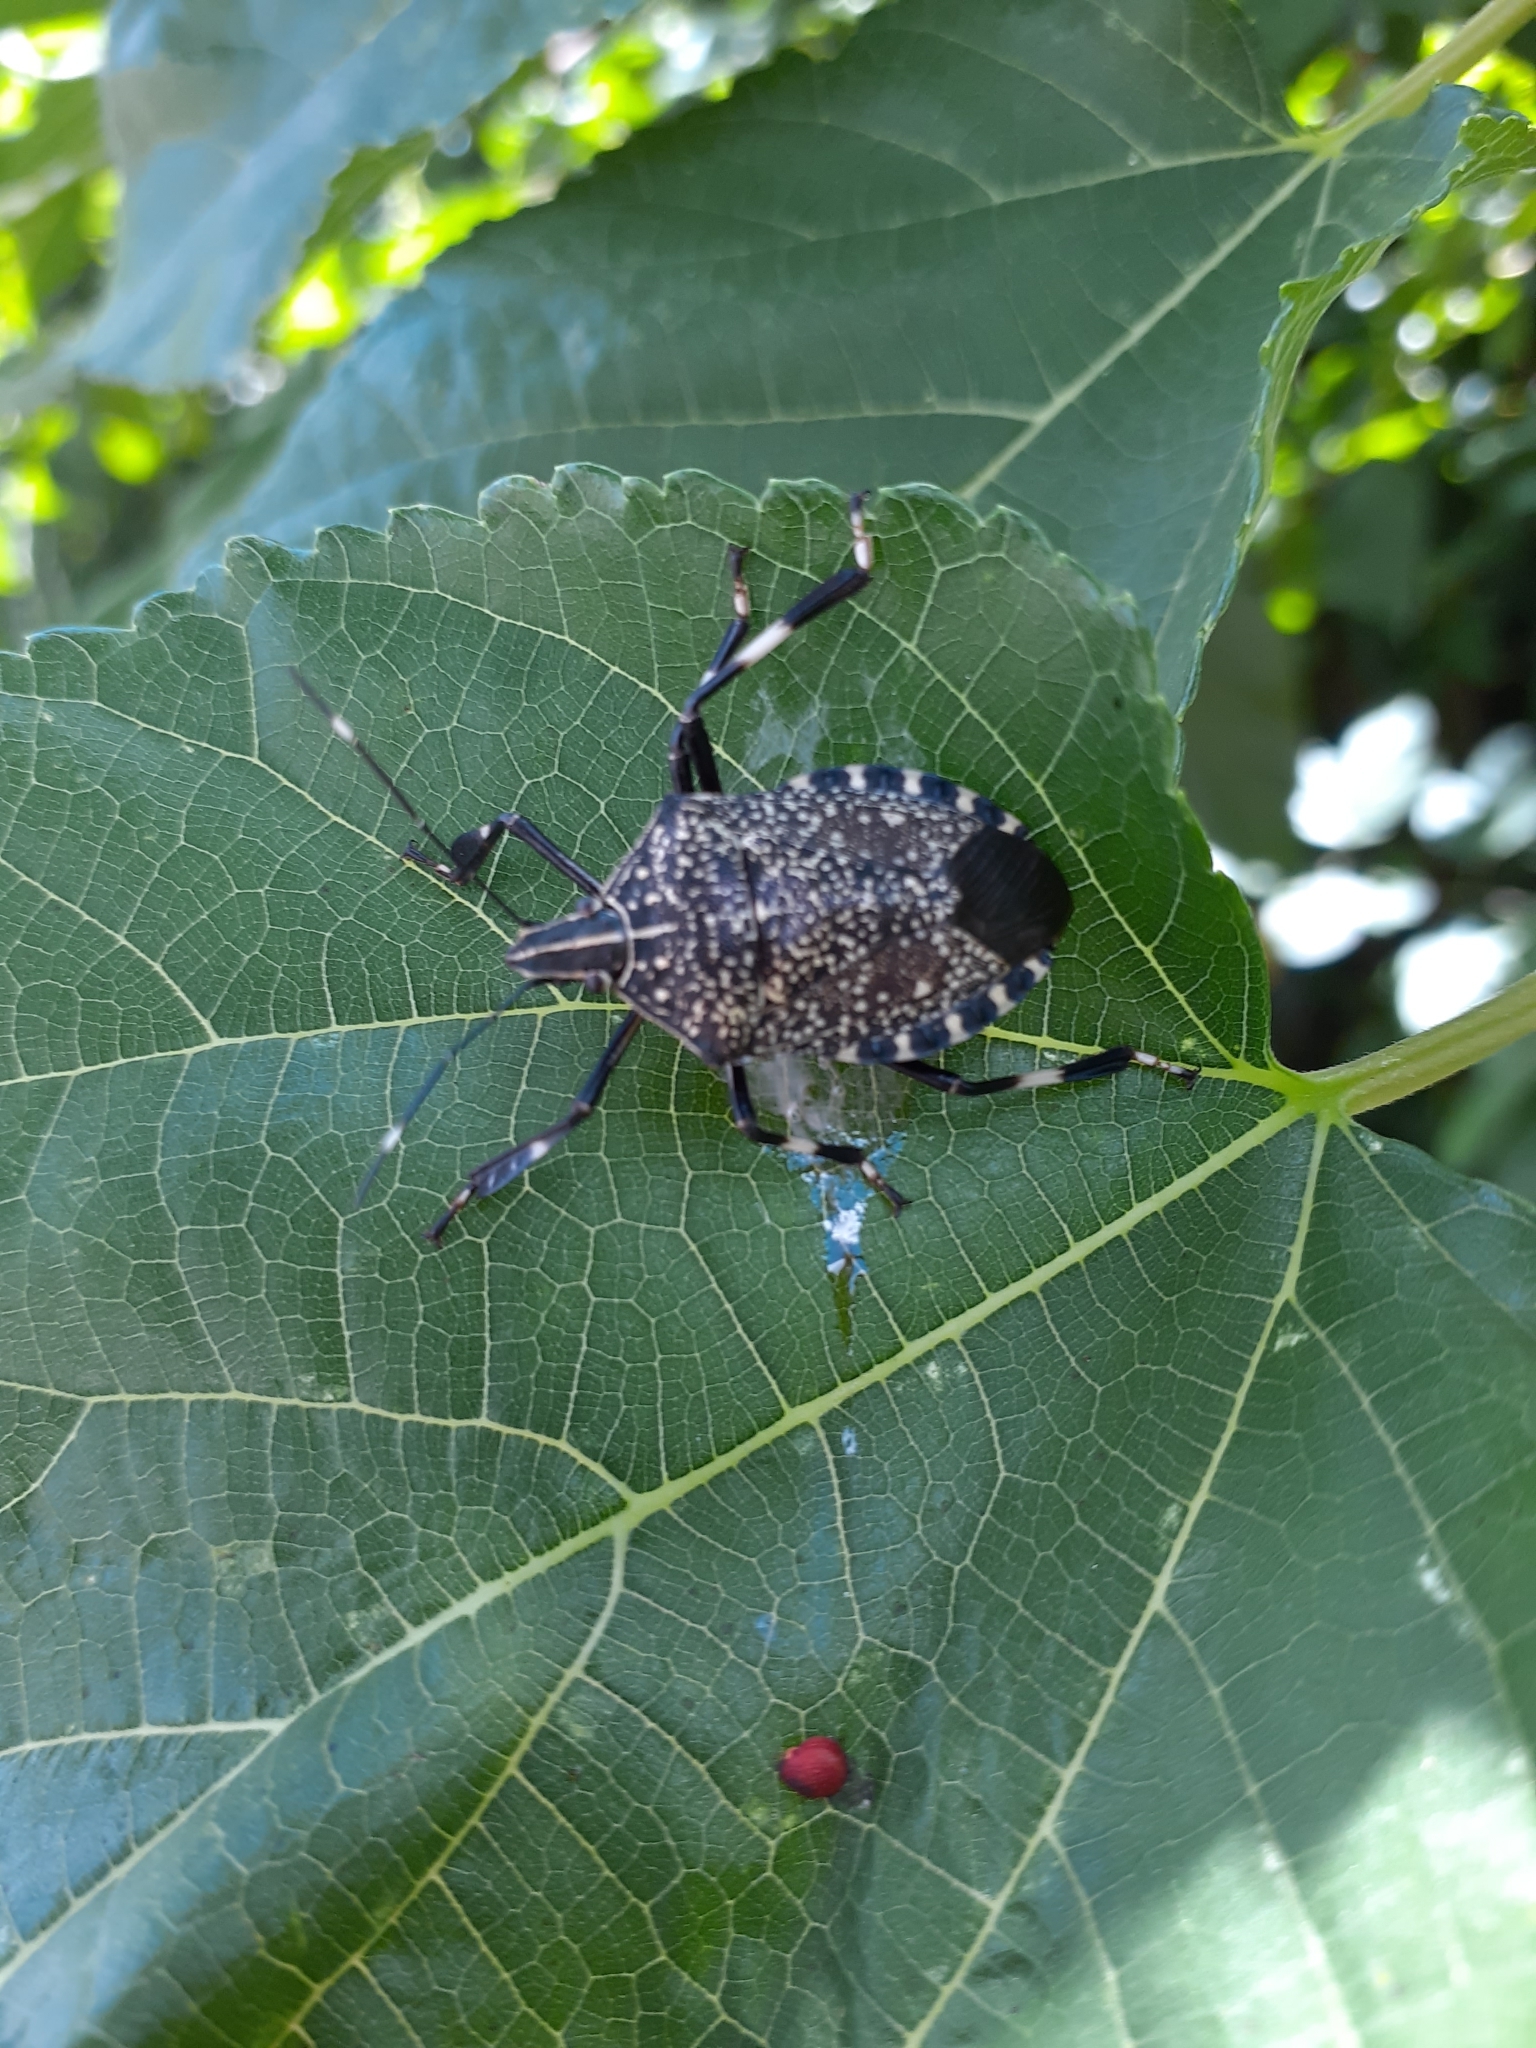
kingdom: Animalia
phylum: Arthropoda
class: Insecta
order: Hemiptera
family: Pentatomidae
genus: Erthesina
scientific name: Erthesina fullo
